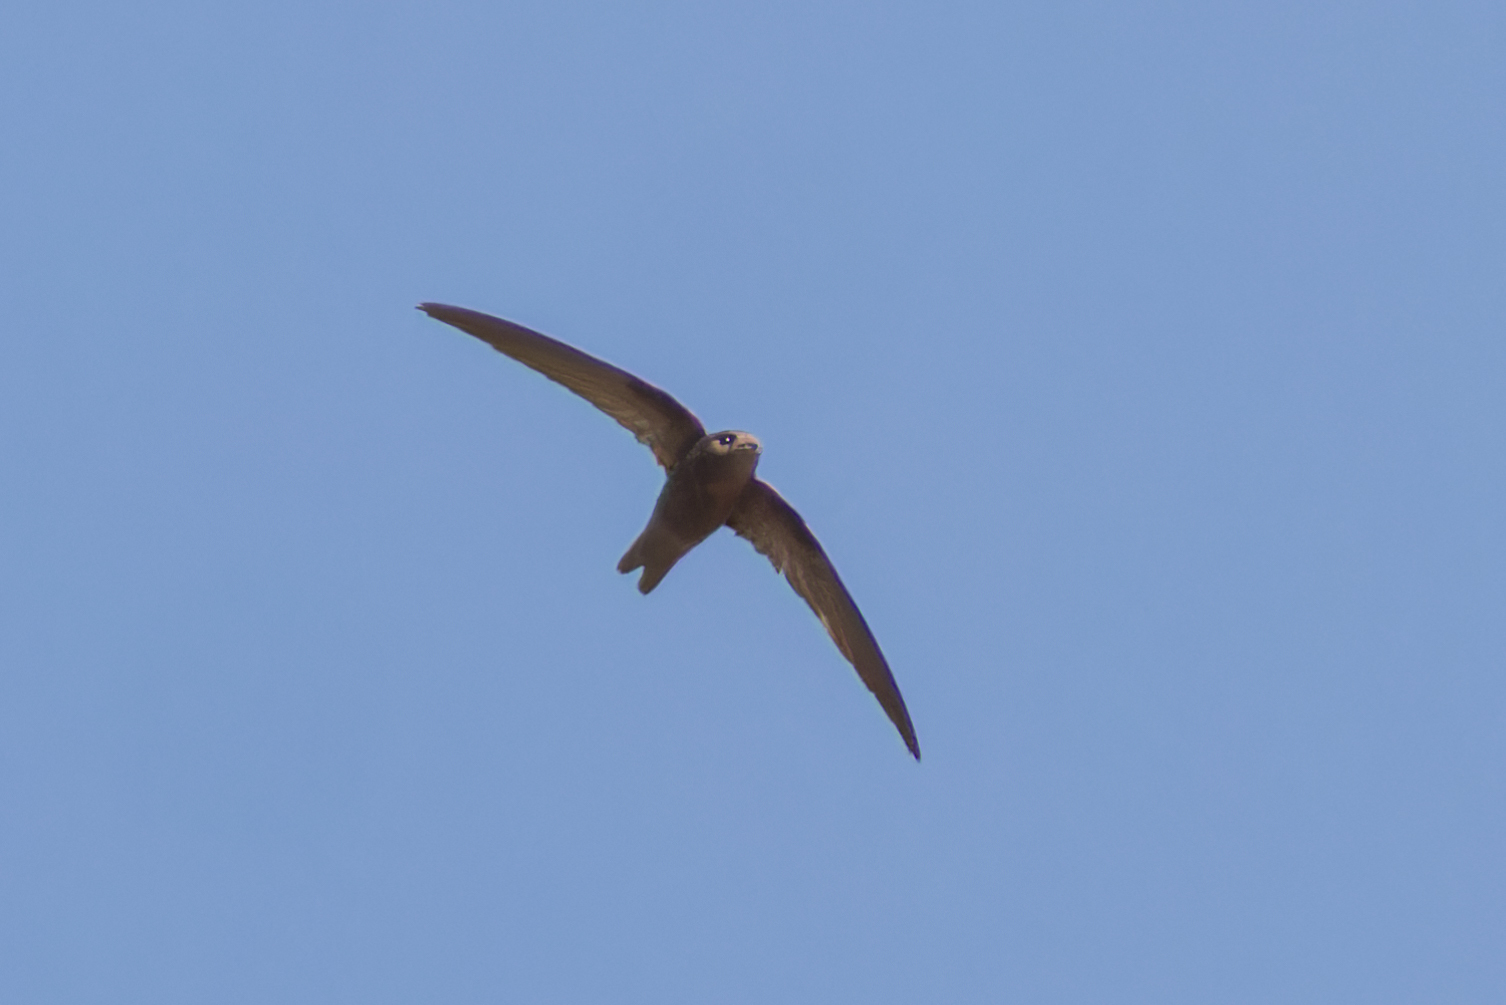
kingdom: Animalia
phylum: Chordata
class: Aves
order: Apodiformes
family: Apodidae
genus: Apus
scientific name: Apus alexandri
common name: Cape verde swift
